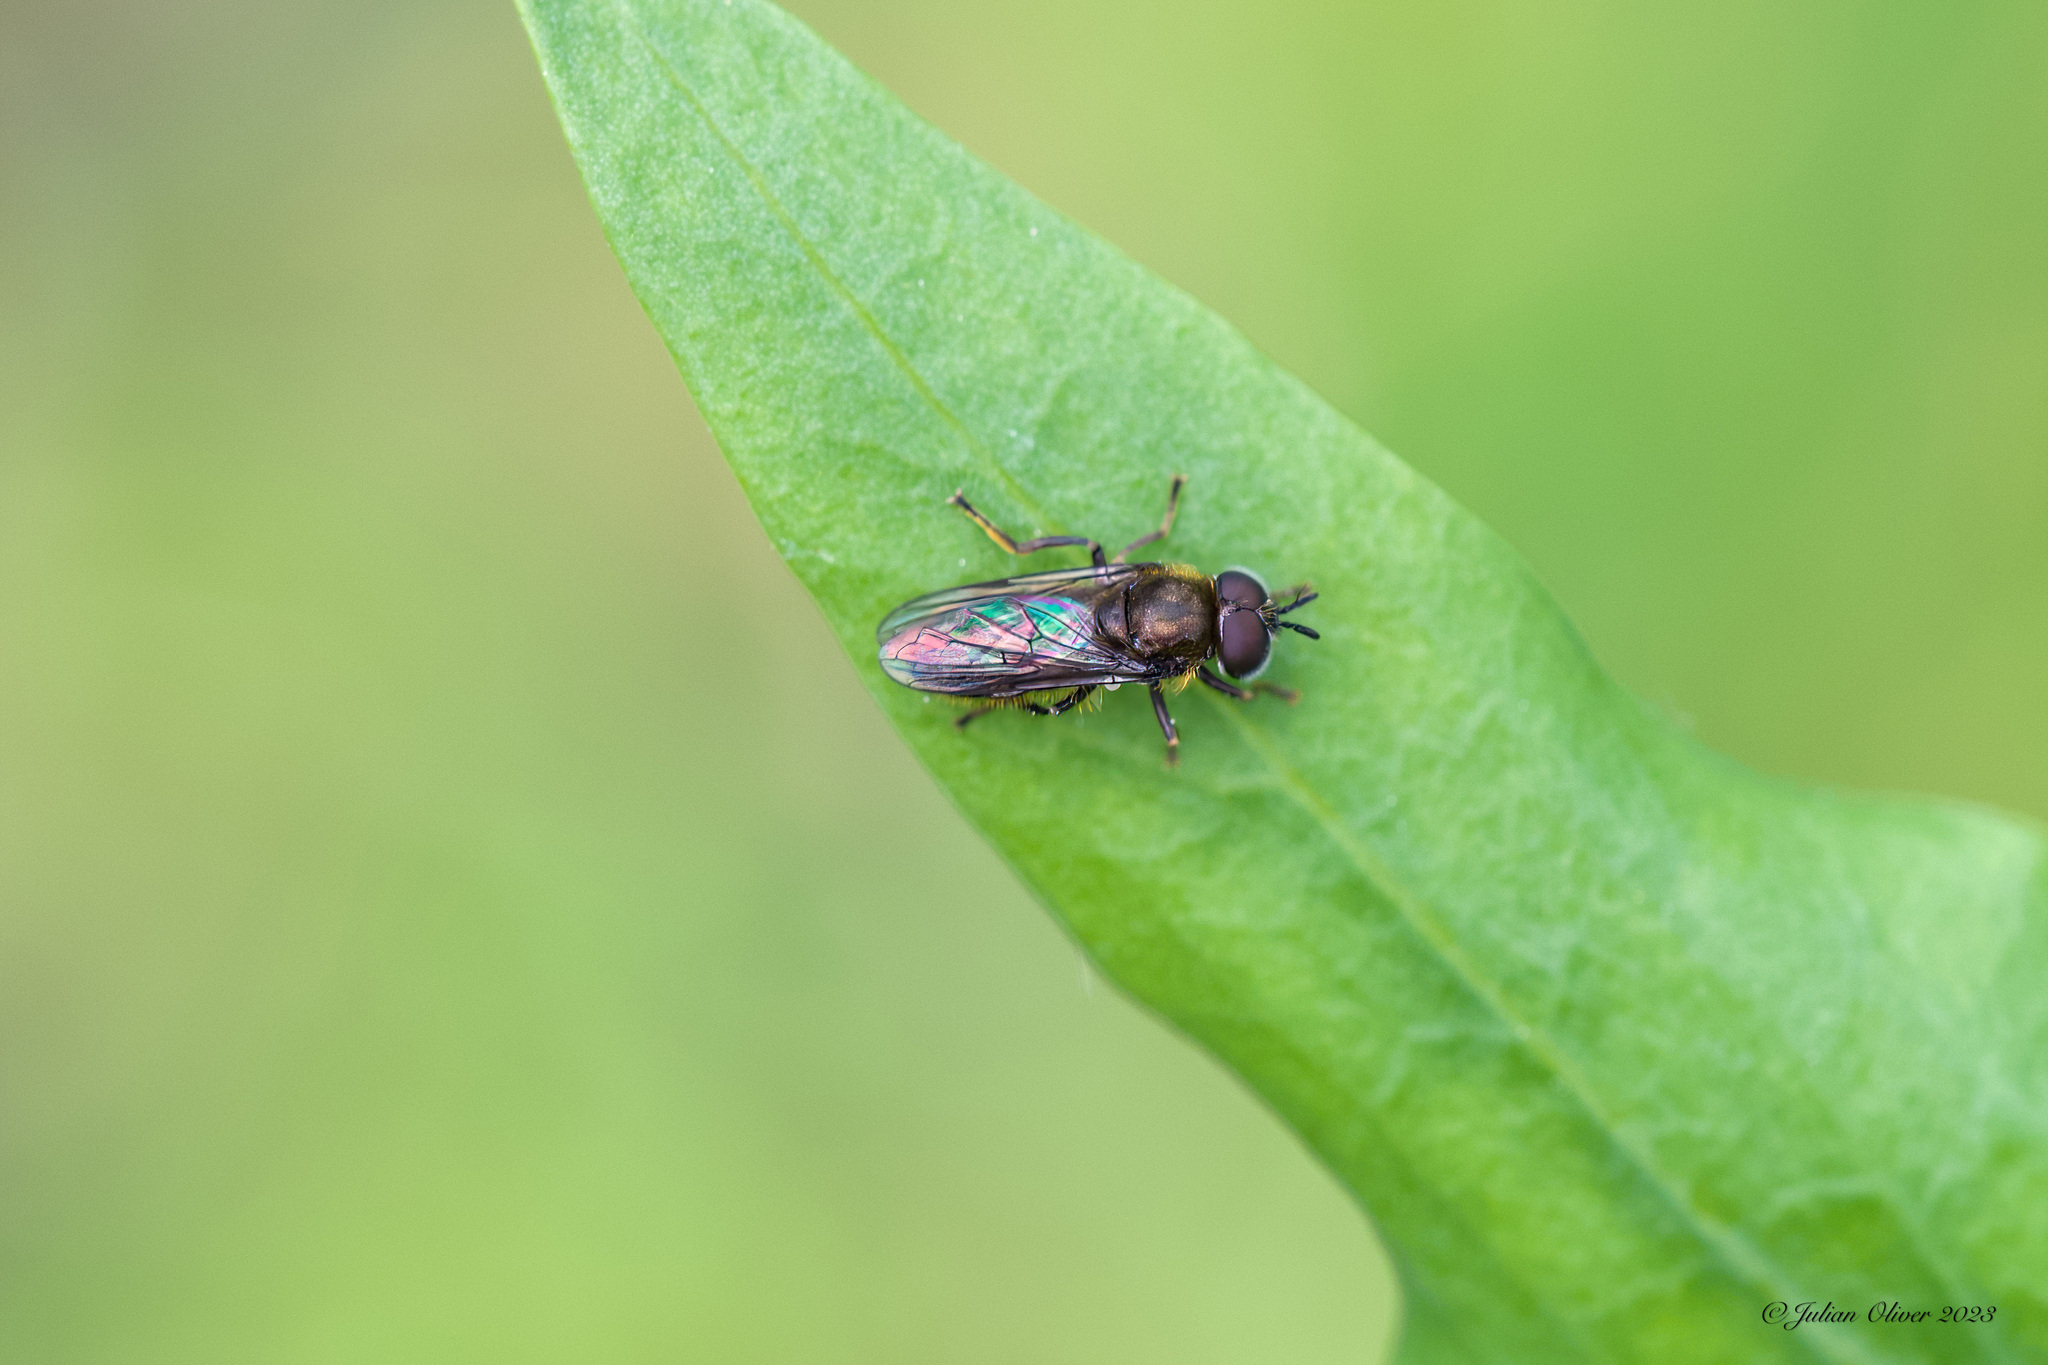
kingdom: Animalia
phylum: Arthropoda
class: Insecta
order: Diptera
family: Syrphidae
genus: Pipizella
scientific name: Pipizella
